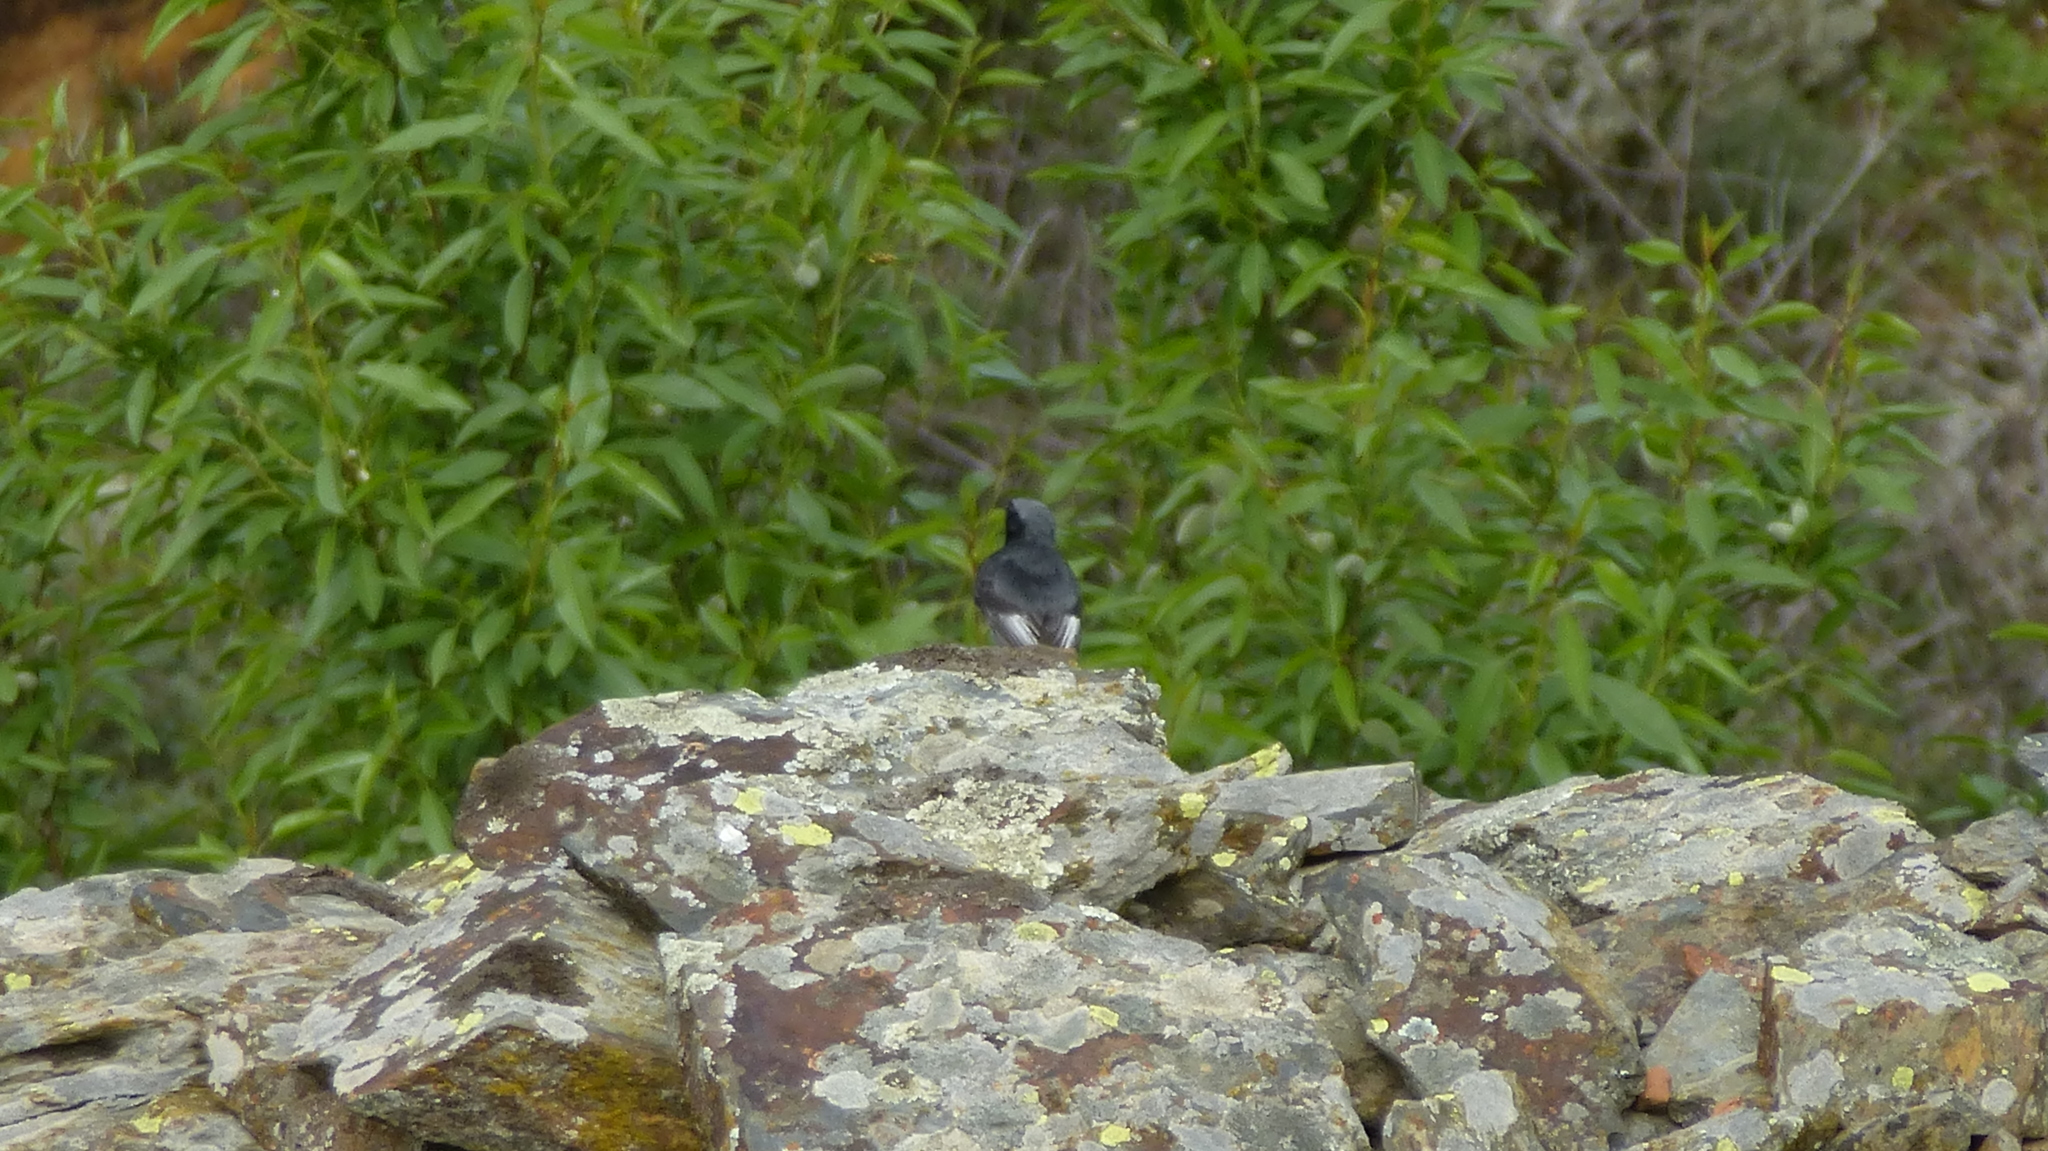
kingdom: Animalia
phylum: Chordata
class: Aves
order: Passeriformes
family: Muscicapidae
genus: Phoenicurus
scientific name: Phoenicurus ochruros
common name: Black redstart
